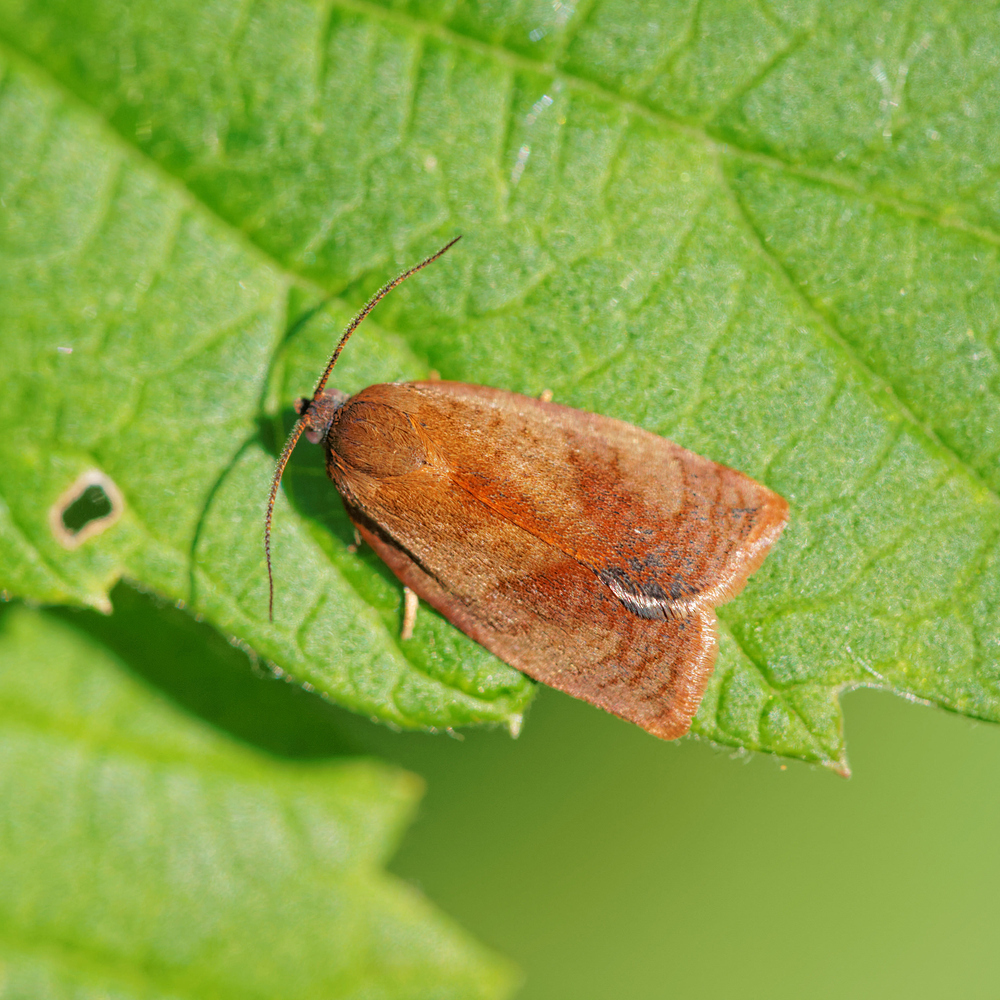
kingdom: Animalia
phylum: Arthropoda
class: Insecta
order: Lepidoptera
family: Tortricidae
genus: Cacoecimorpha
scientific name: Cacoecimorpha pronubana
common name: Carnation tortrix
